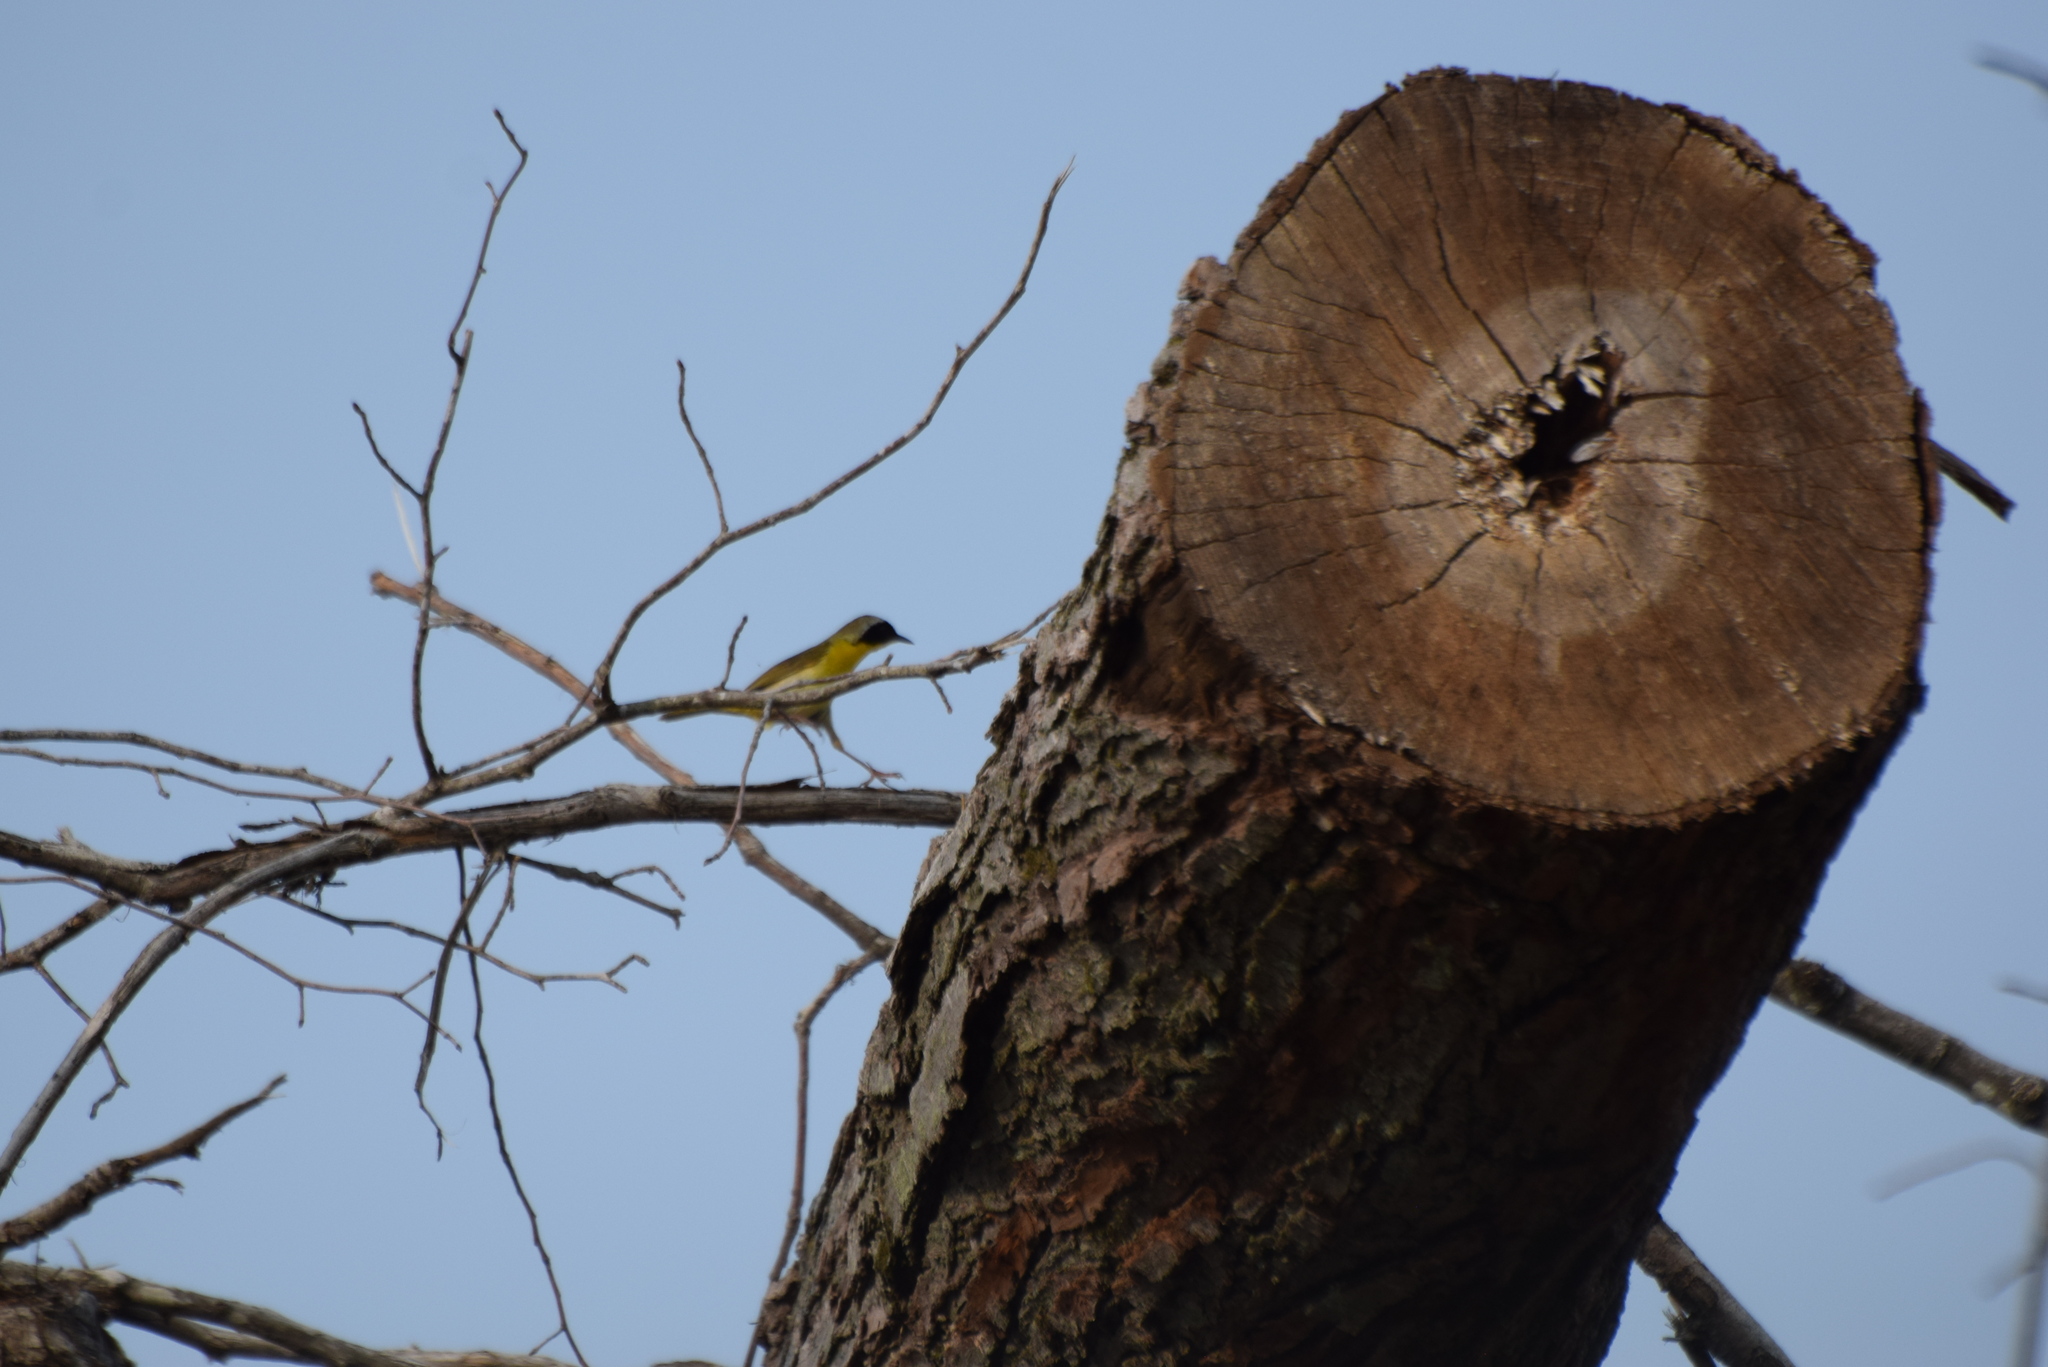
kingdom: Animalia
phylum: Chordata
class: Aves
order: Passeriformes
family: Parulidae
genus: Geothlypis
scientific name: Geothlypis trichas
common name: Common yellowthroat
